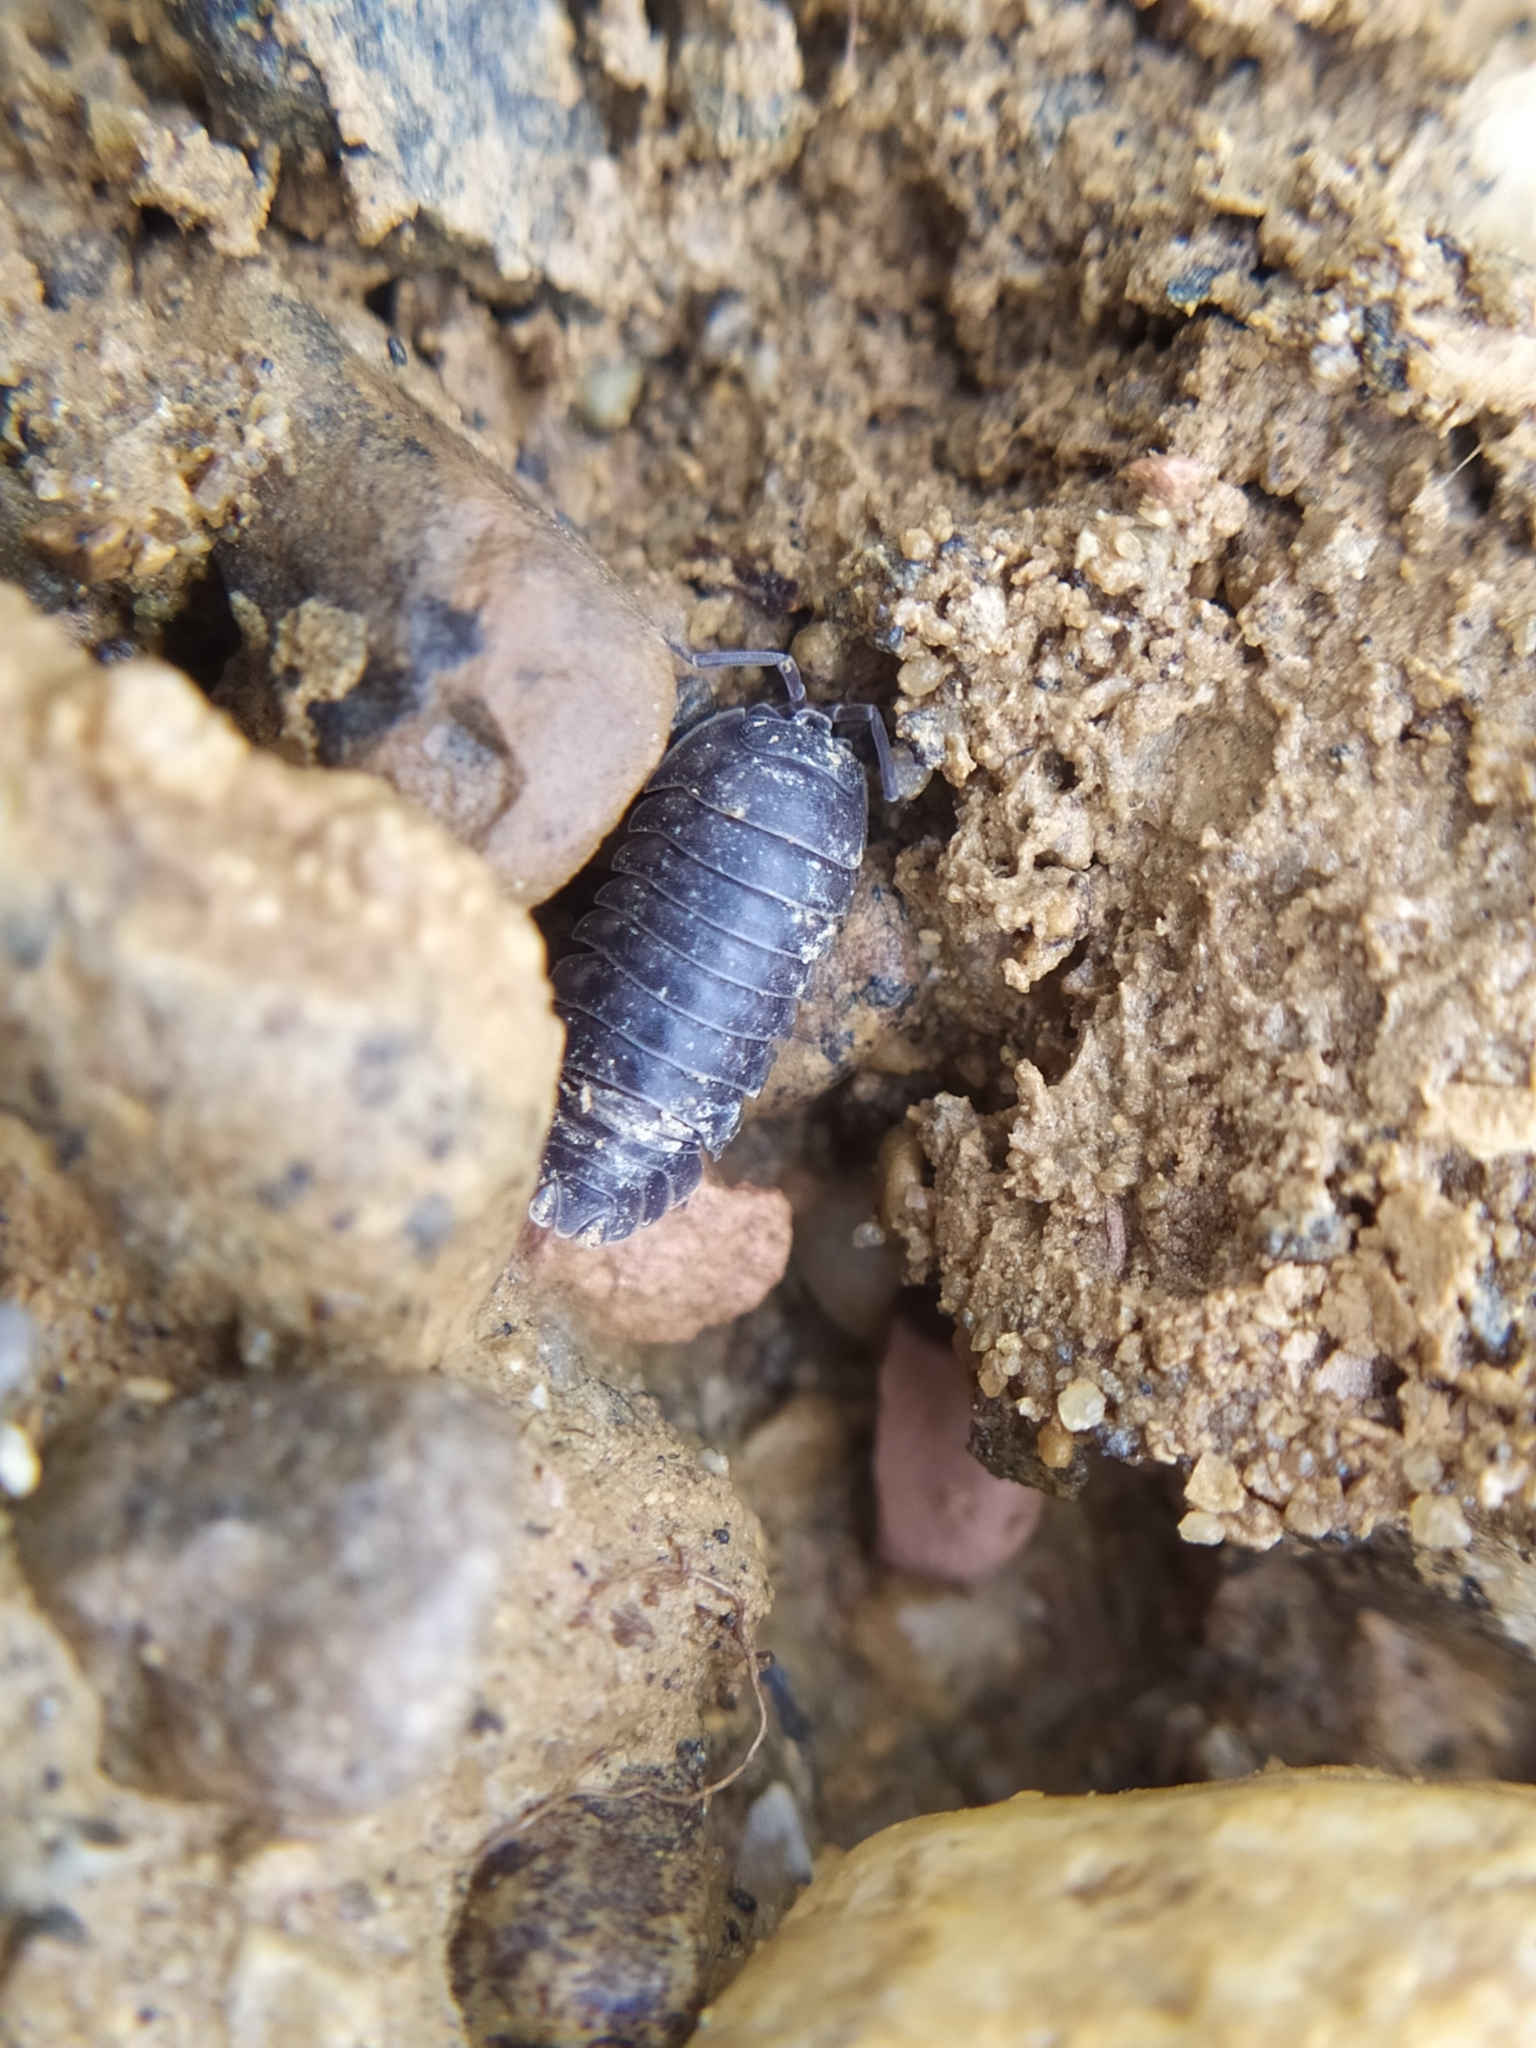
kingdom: Animalia
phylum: Arthropoda
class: Malacostraca
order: Isopoda
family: Armadillidiidae
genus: Armadillidium
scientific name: Armadillidium nasatum
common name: Isopod
